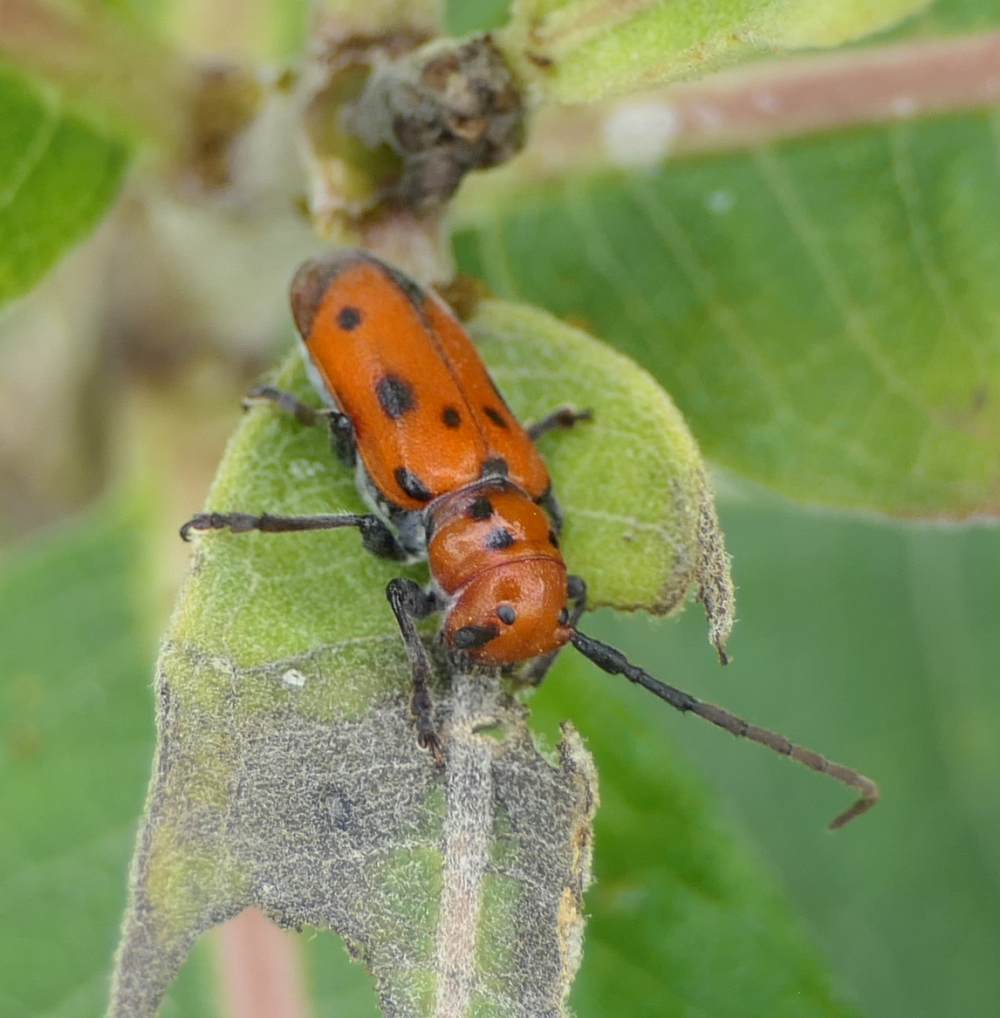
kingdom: Animalia
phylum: Arthropoda
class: Insecta
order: Coleoptera
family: Cerambycidae
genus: Tetraopes
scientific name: Tetraopes tetrophthalmus
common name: Red milkweed beetle
